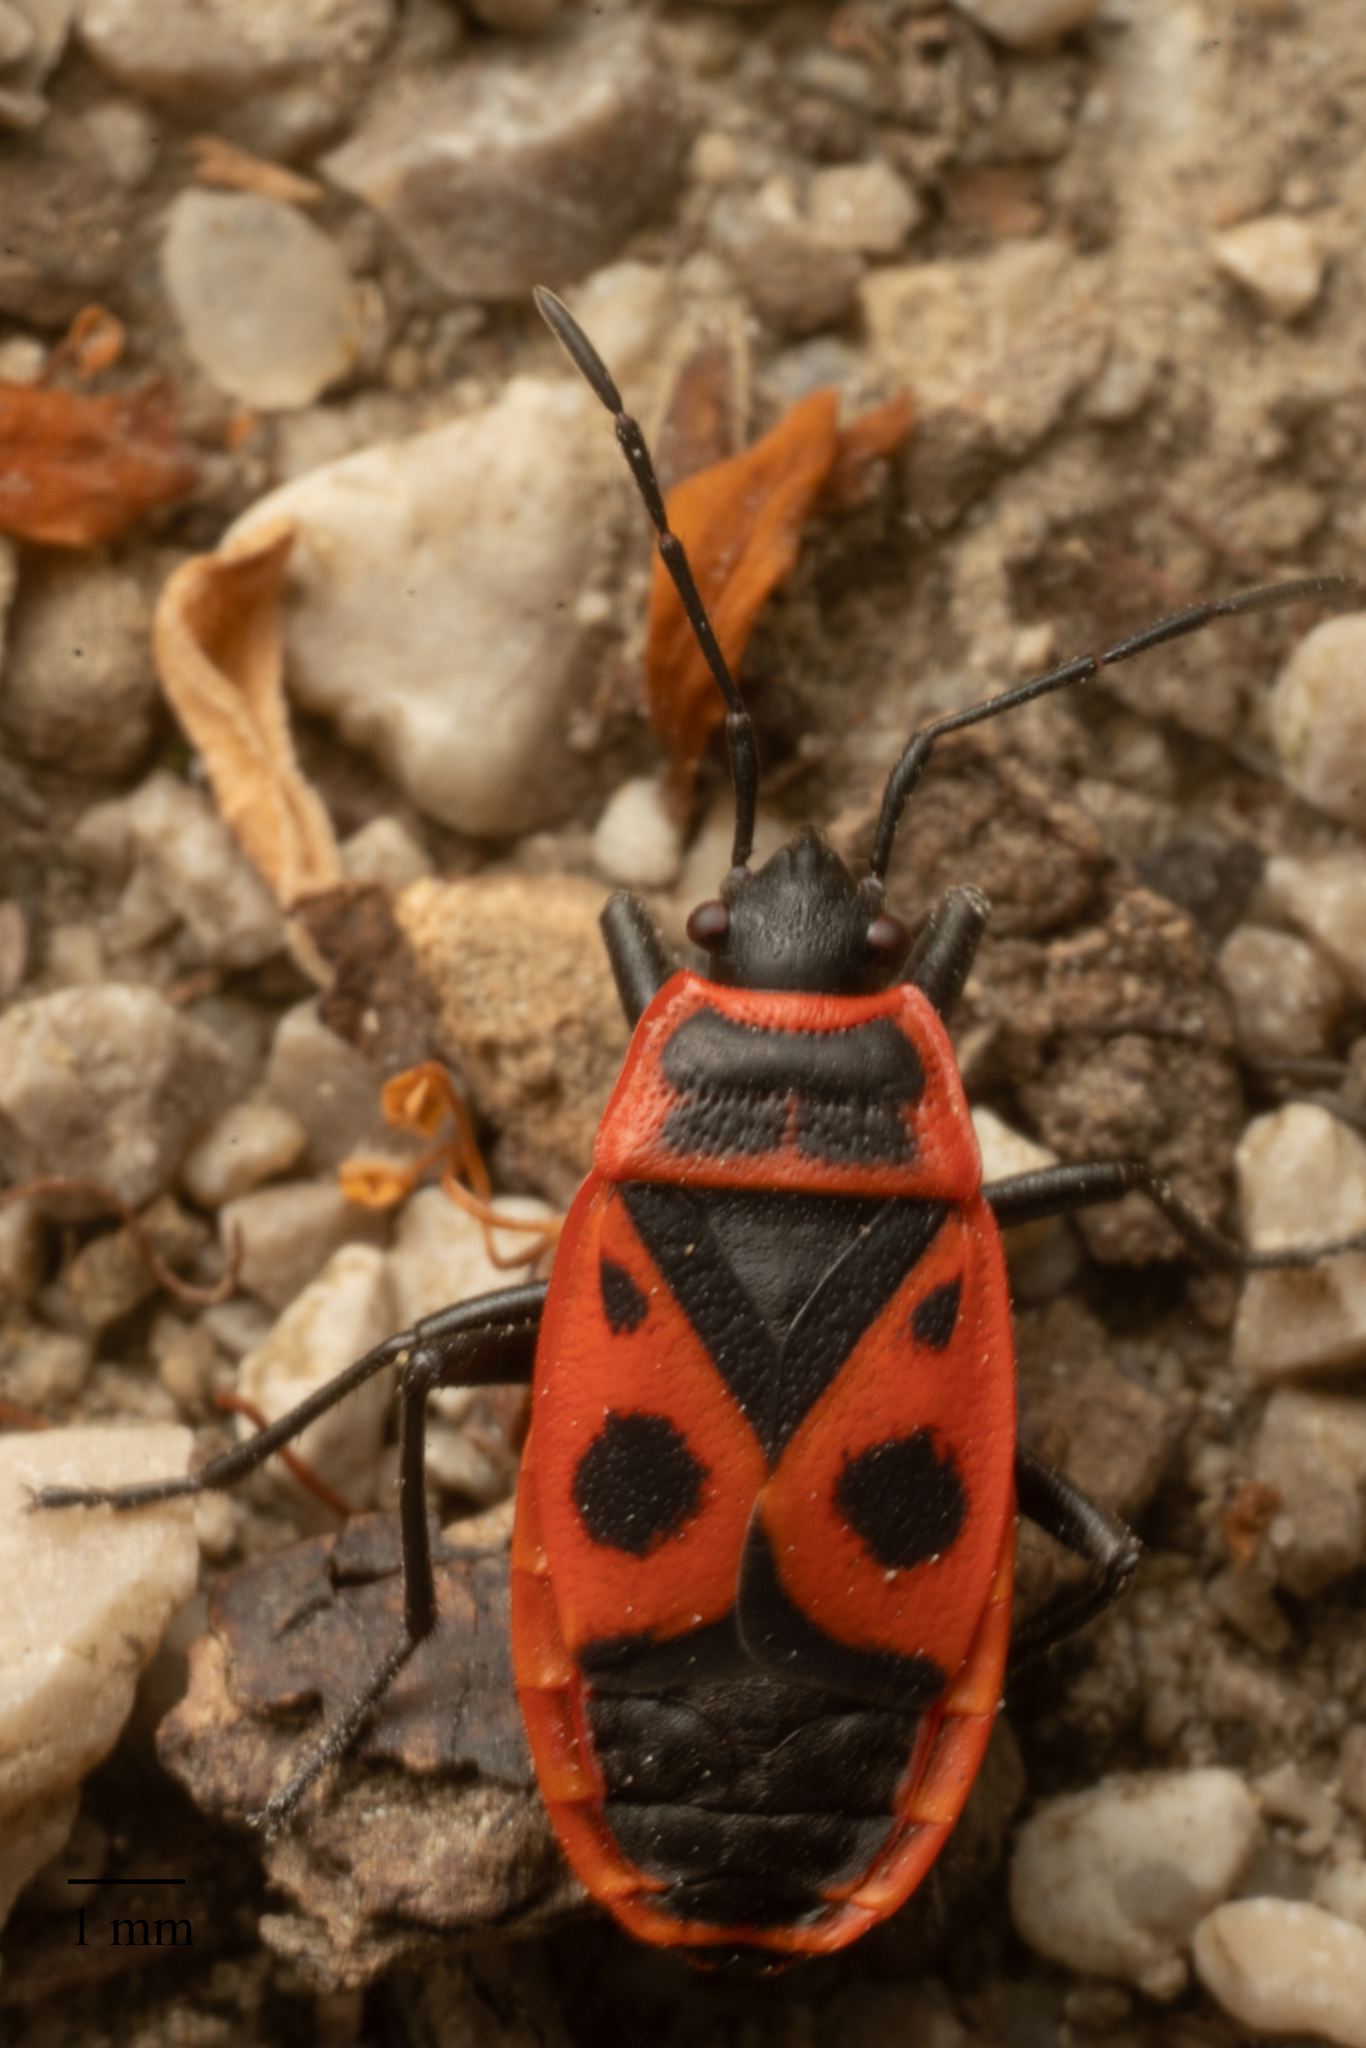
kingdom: Animalia
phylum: Arthropoda
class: Insecta
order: Hemiptera
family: Pyrrhocoridae
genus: Pyrrhocoris
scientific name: Pyrrhocoris apterus
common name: Firebug
